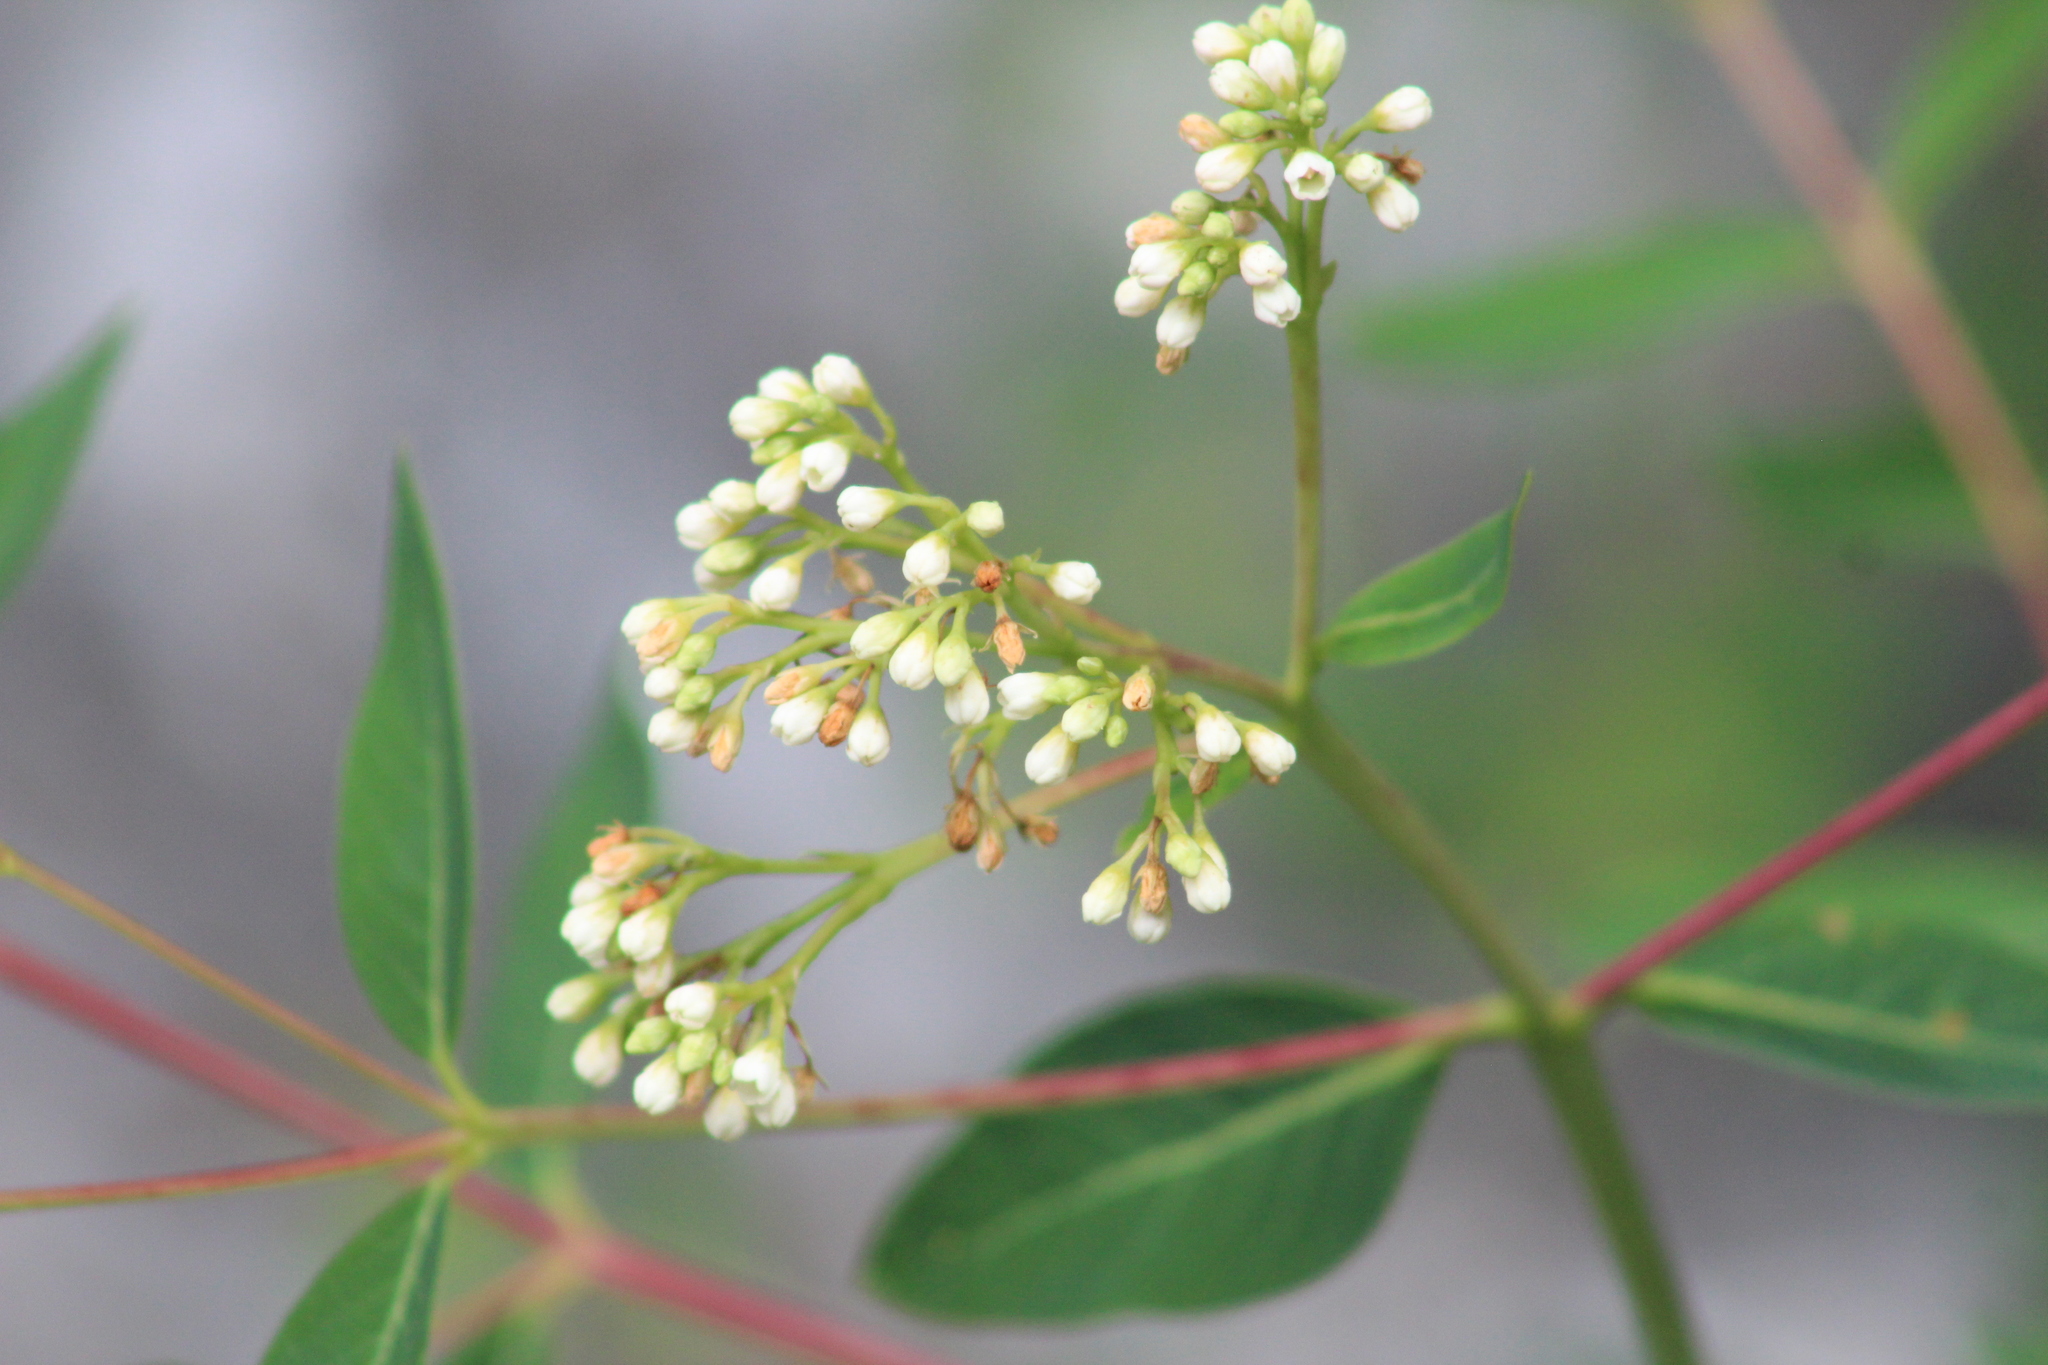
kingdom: Plantae
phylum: Tracheophyta
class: Magnoliopsida
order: Gentianales
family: Apocynaceae
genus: Apocynum
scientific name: Apocynum cannabinum
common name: Hemp dogbane
